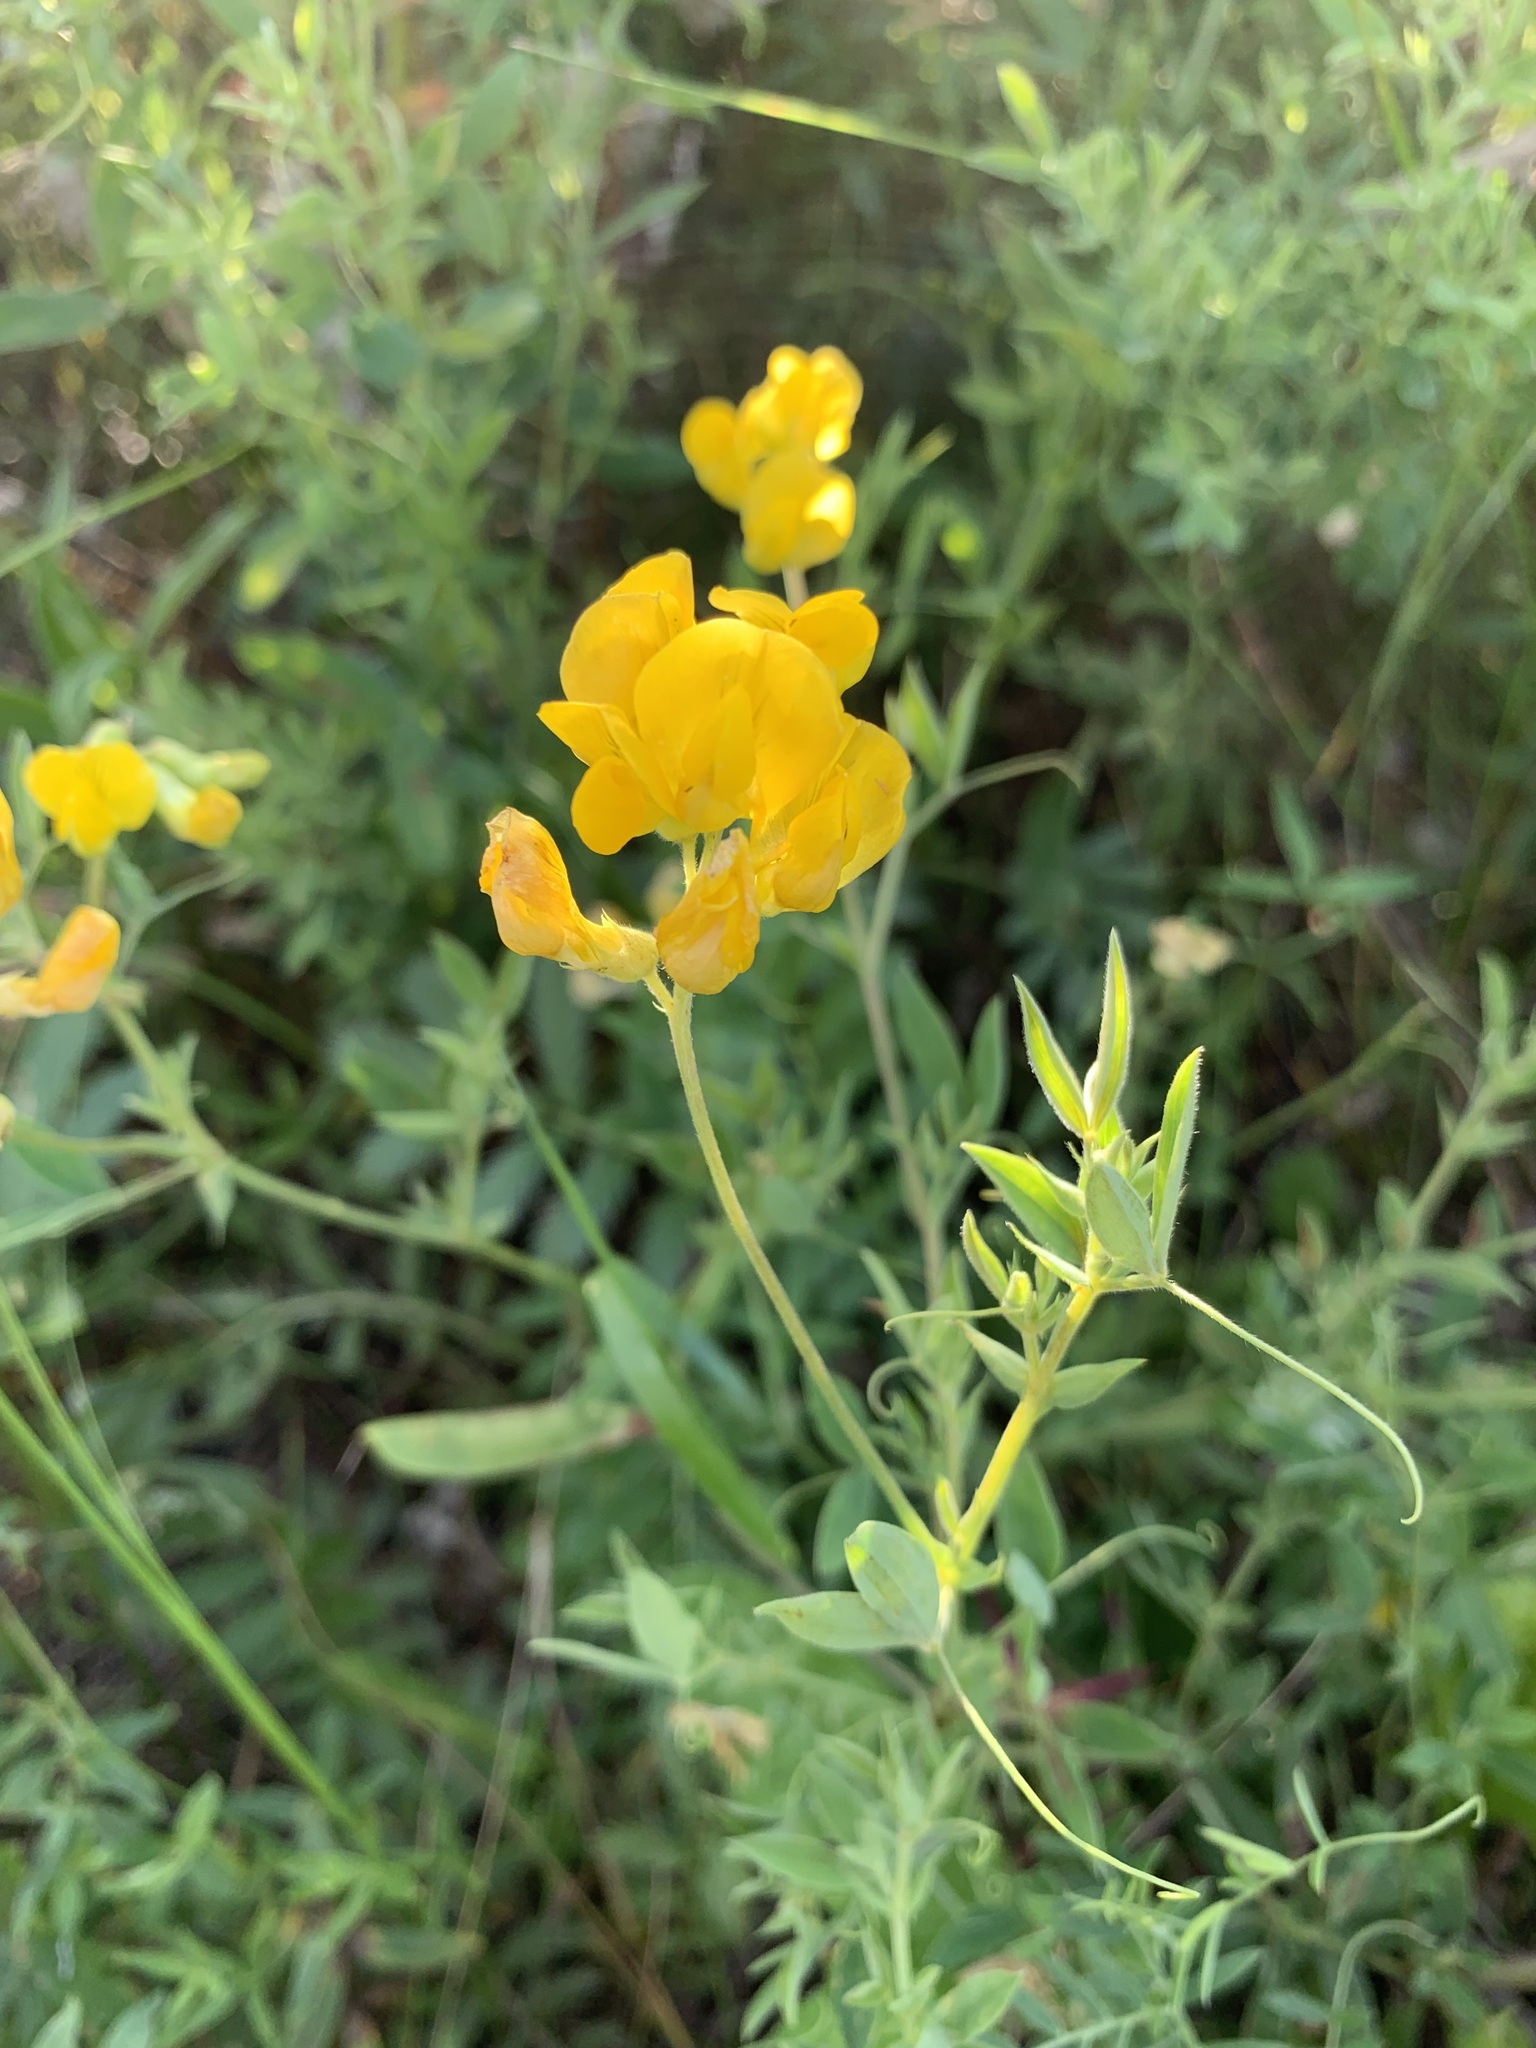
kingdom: Plantae
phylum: Tracheophyta
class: Magnoliopsida
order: Fabales
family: Fabaceae
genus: Lathyrus
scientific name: Lathyrus pratensis
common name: Meadow vetchling
